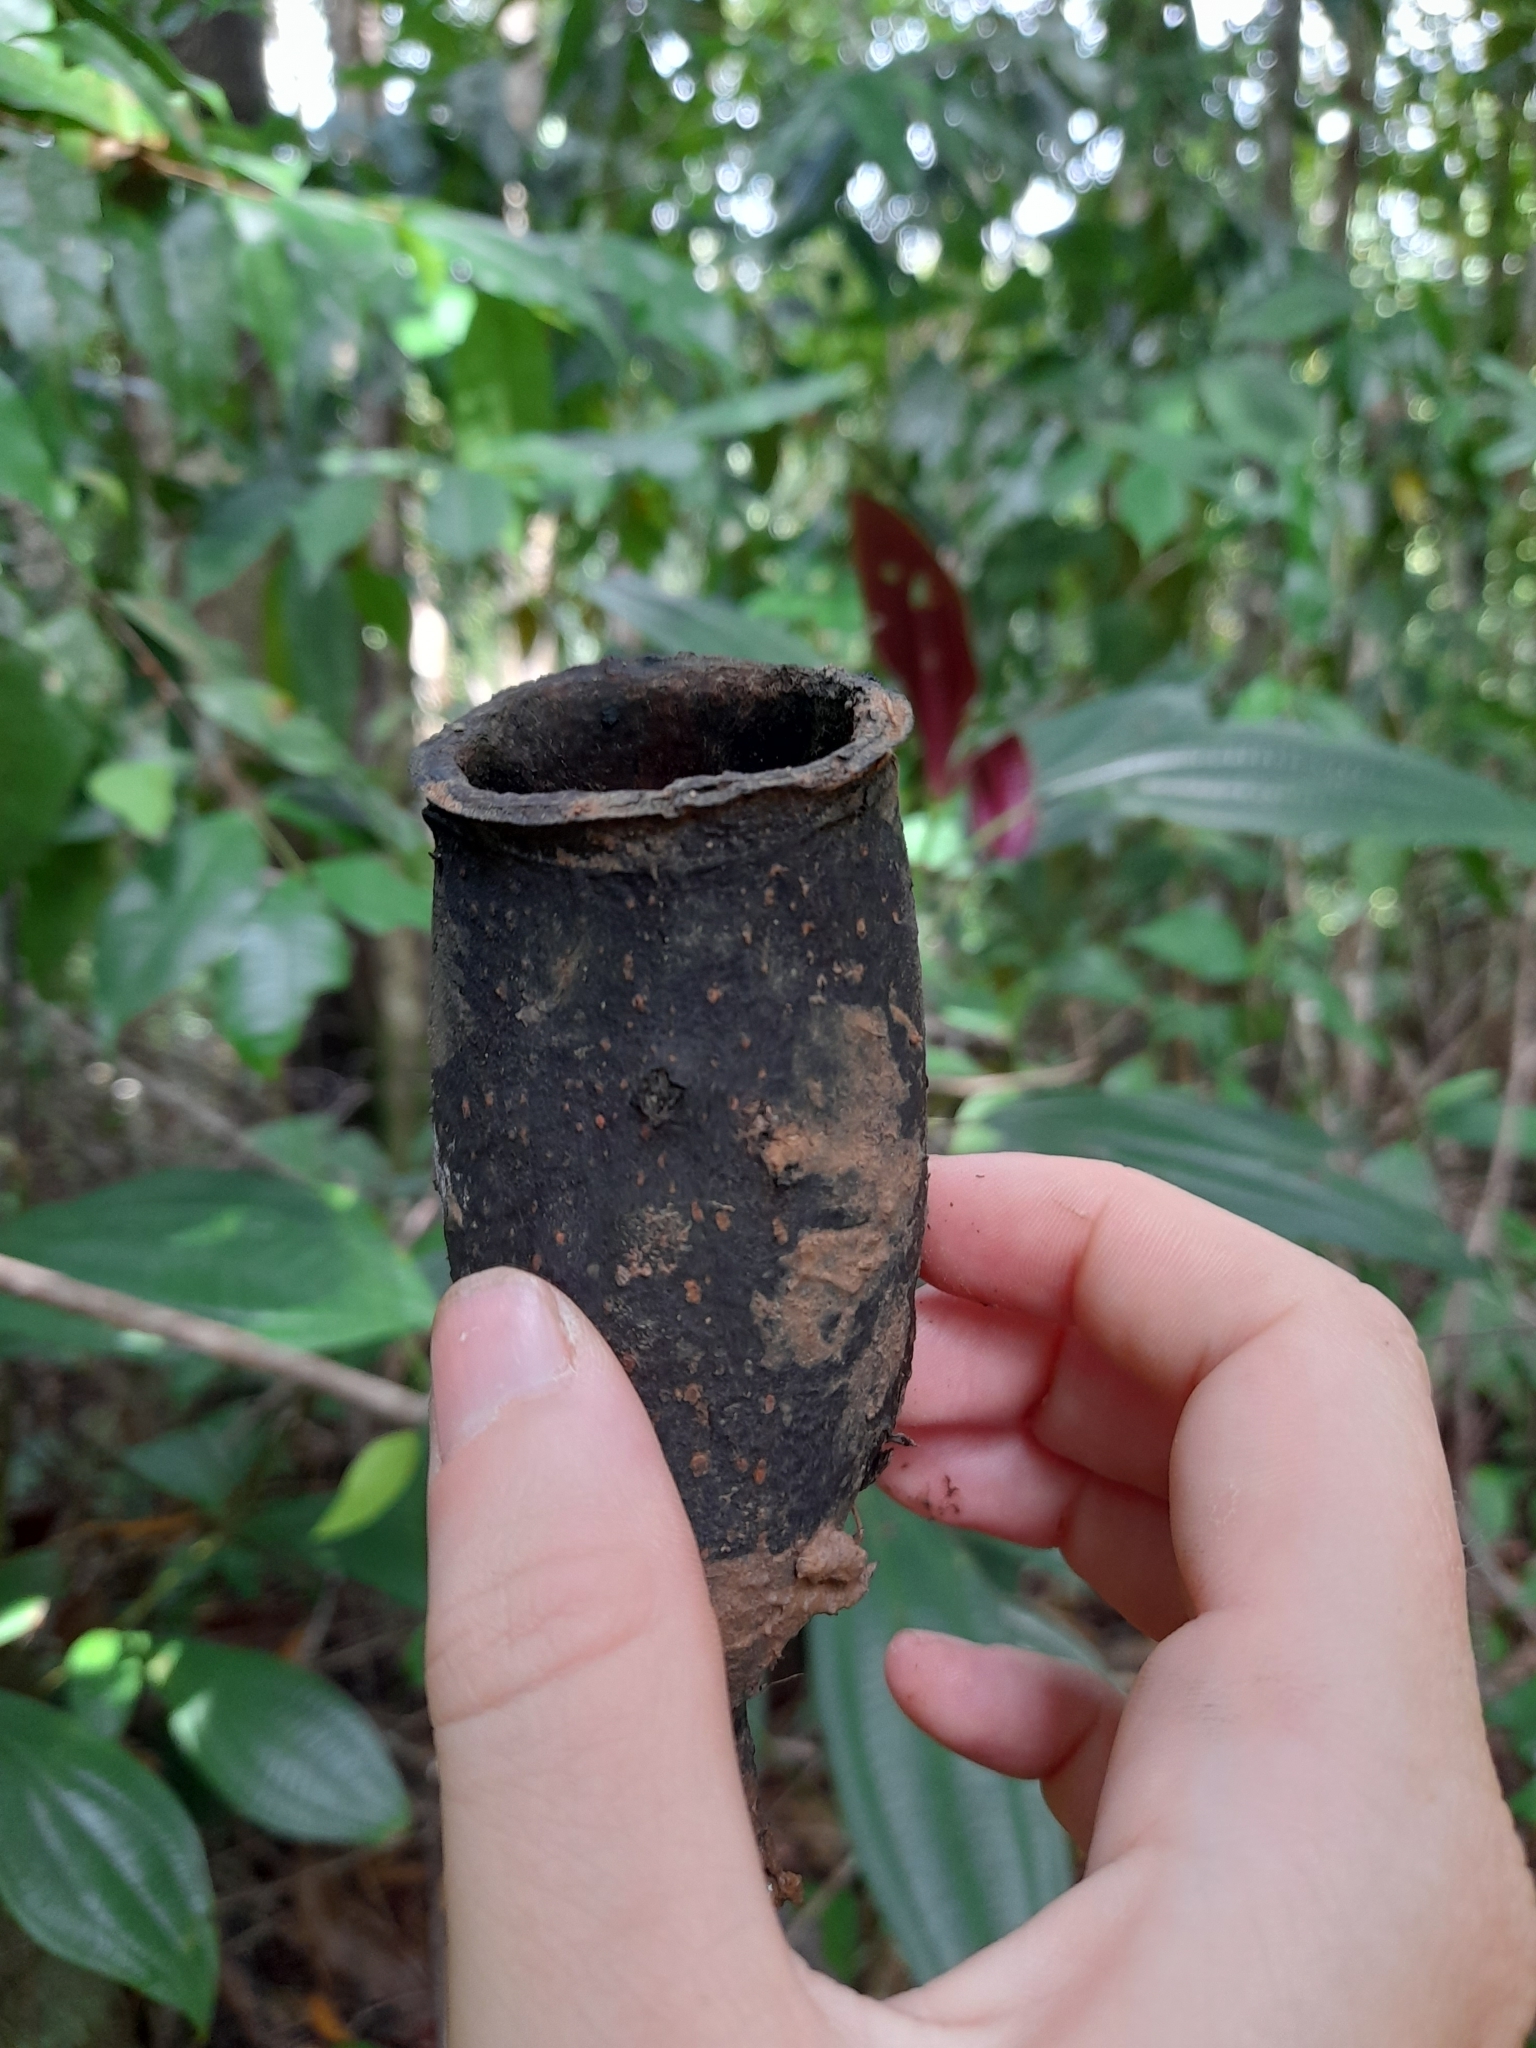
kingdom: Plantae
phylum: Tracheophyta
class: Magnoliopsida
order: Ericales
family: Lecythidaceae
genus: Couratari
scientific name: Couratari guianensis
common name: Fine-leaf wadara
